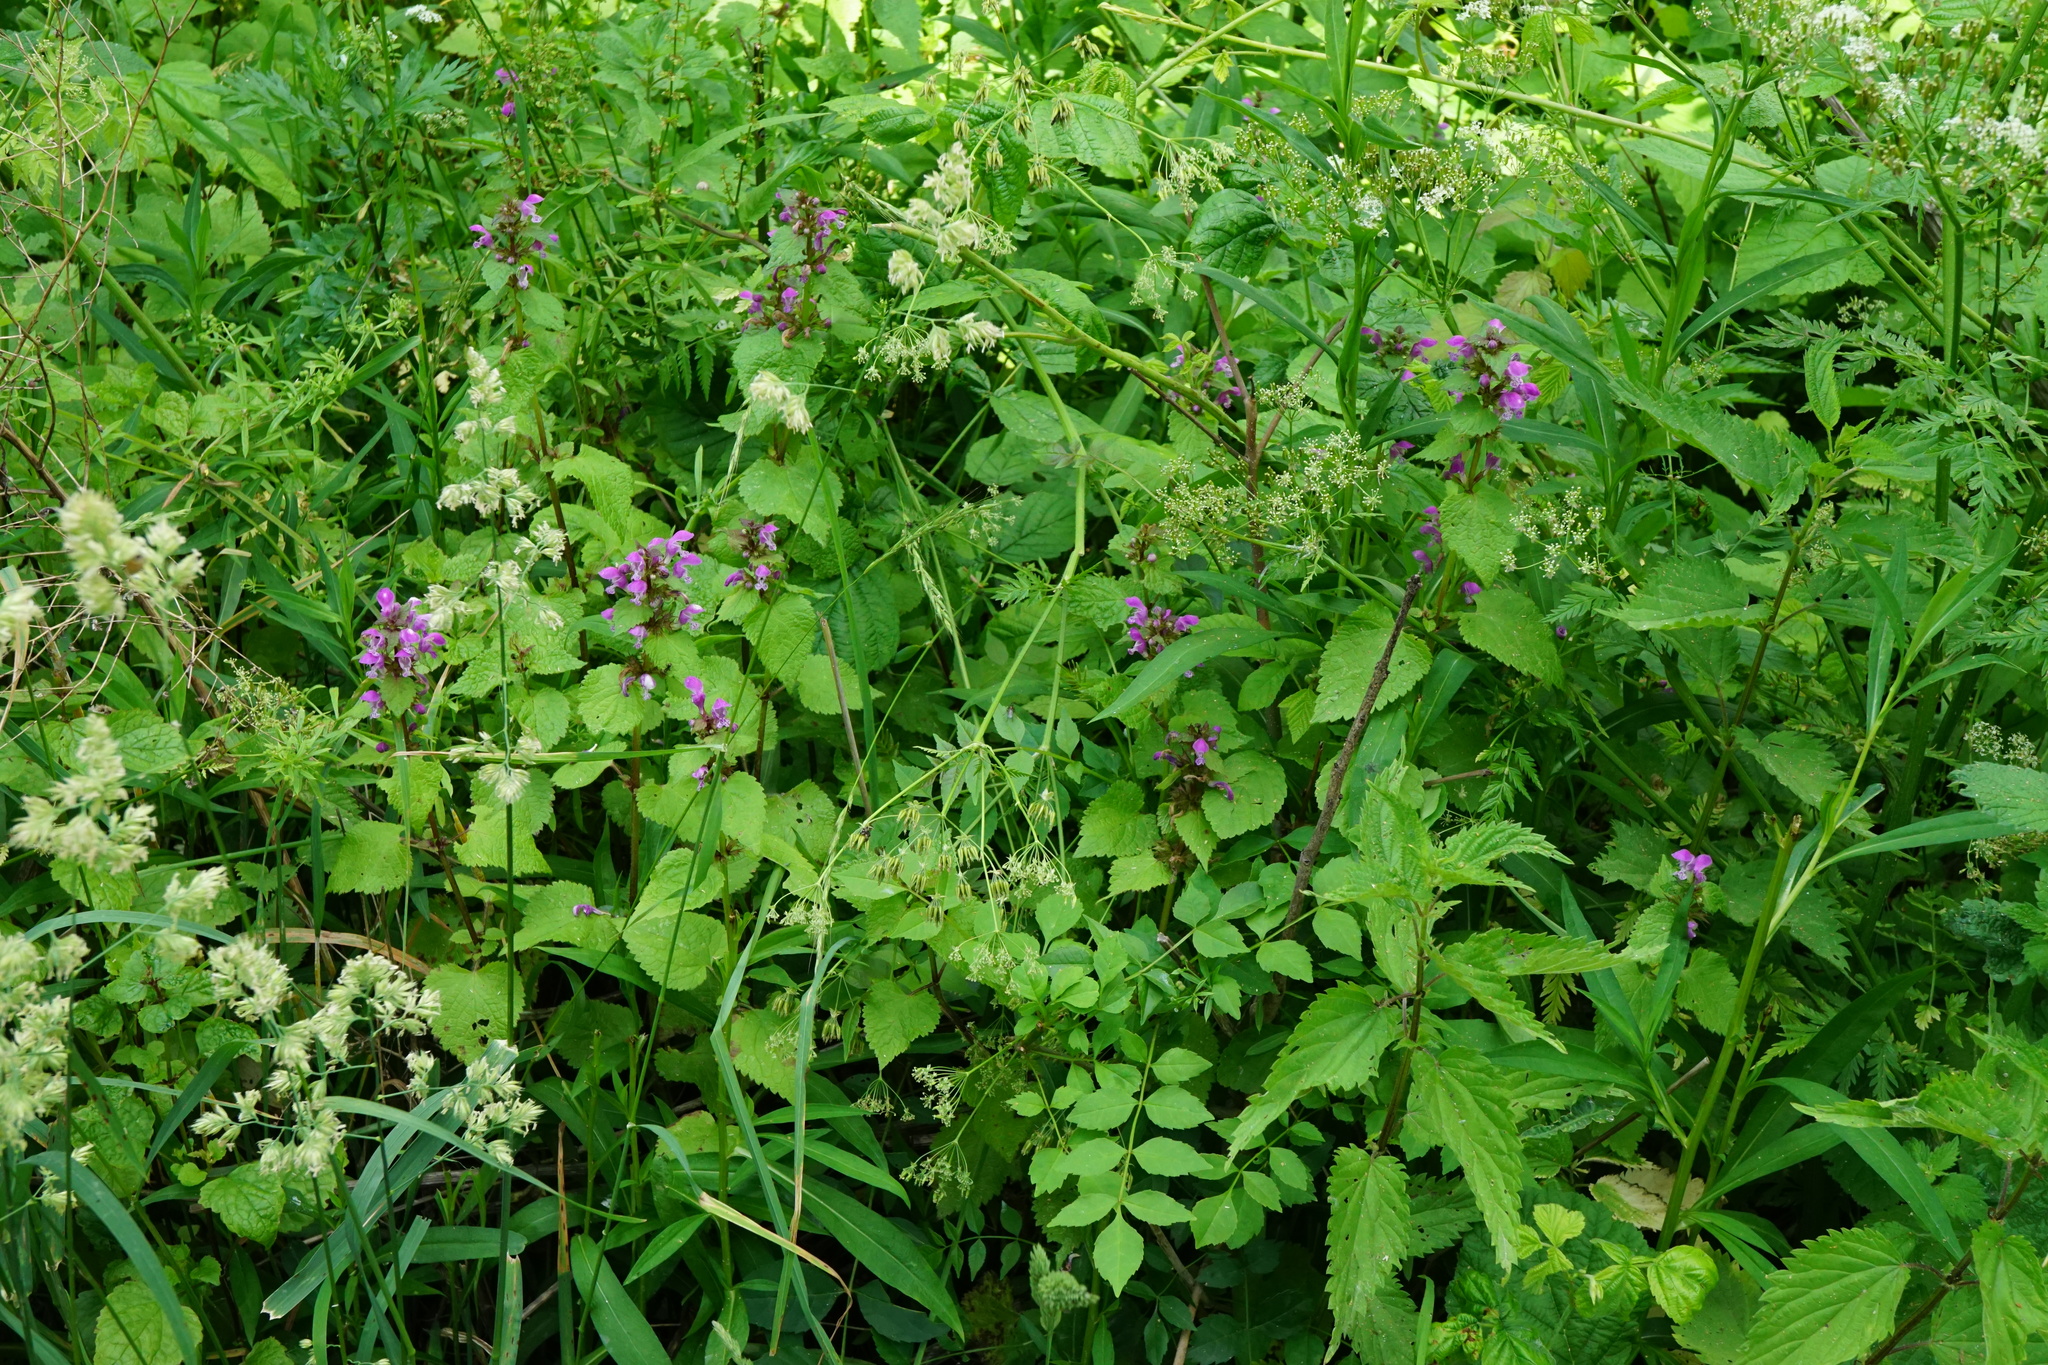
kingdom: Plantae
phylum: Tracheophyta
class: Magnoliopsida
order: Lamiales
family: Lamiaceae
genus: Lamium
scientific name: Lamium maculatum
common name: Spotted dead-nettle
